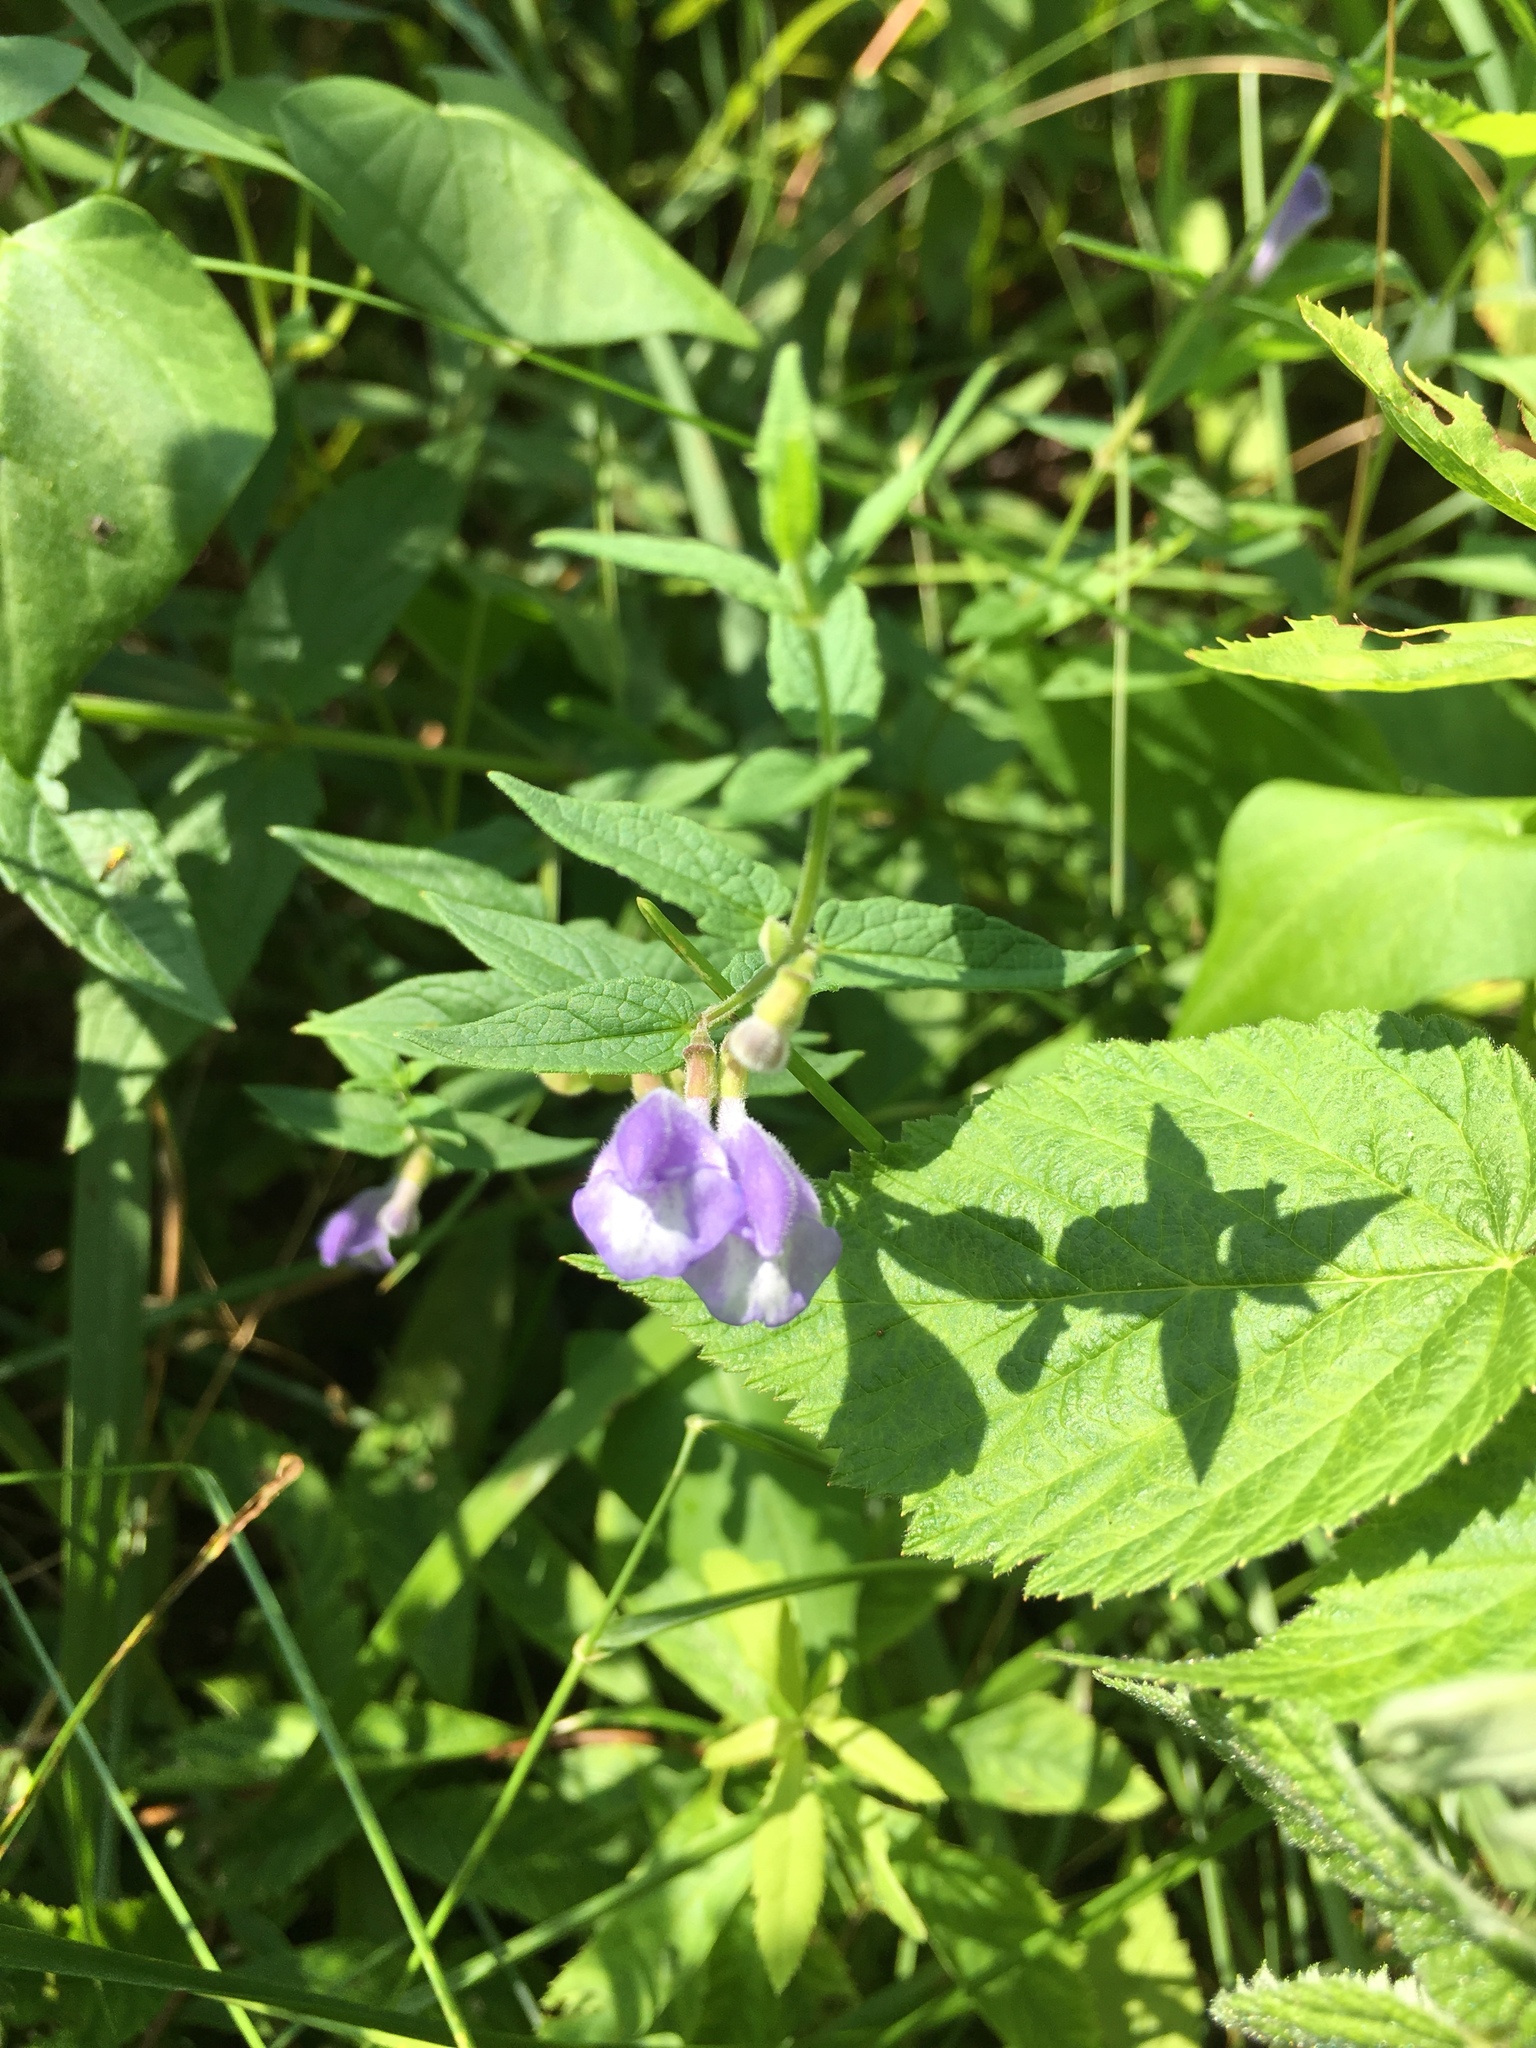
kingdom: Plantae
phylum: Tracheophyta
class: Magnoliopsida
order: Lamiales
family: Lamiaceae
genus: Scutellaria
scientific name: Scutellaria galericulata
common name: Skullcap
